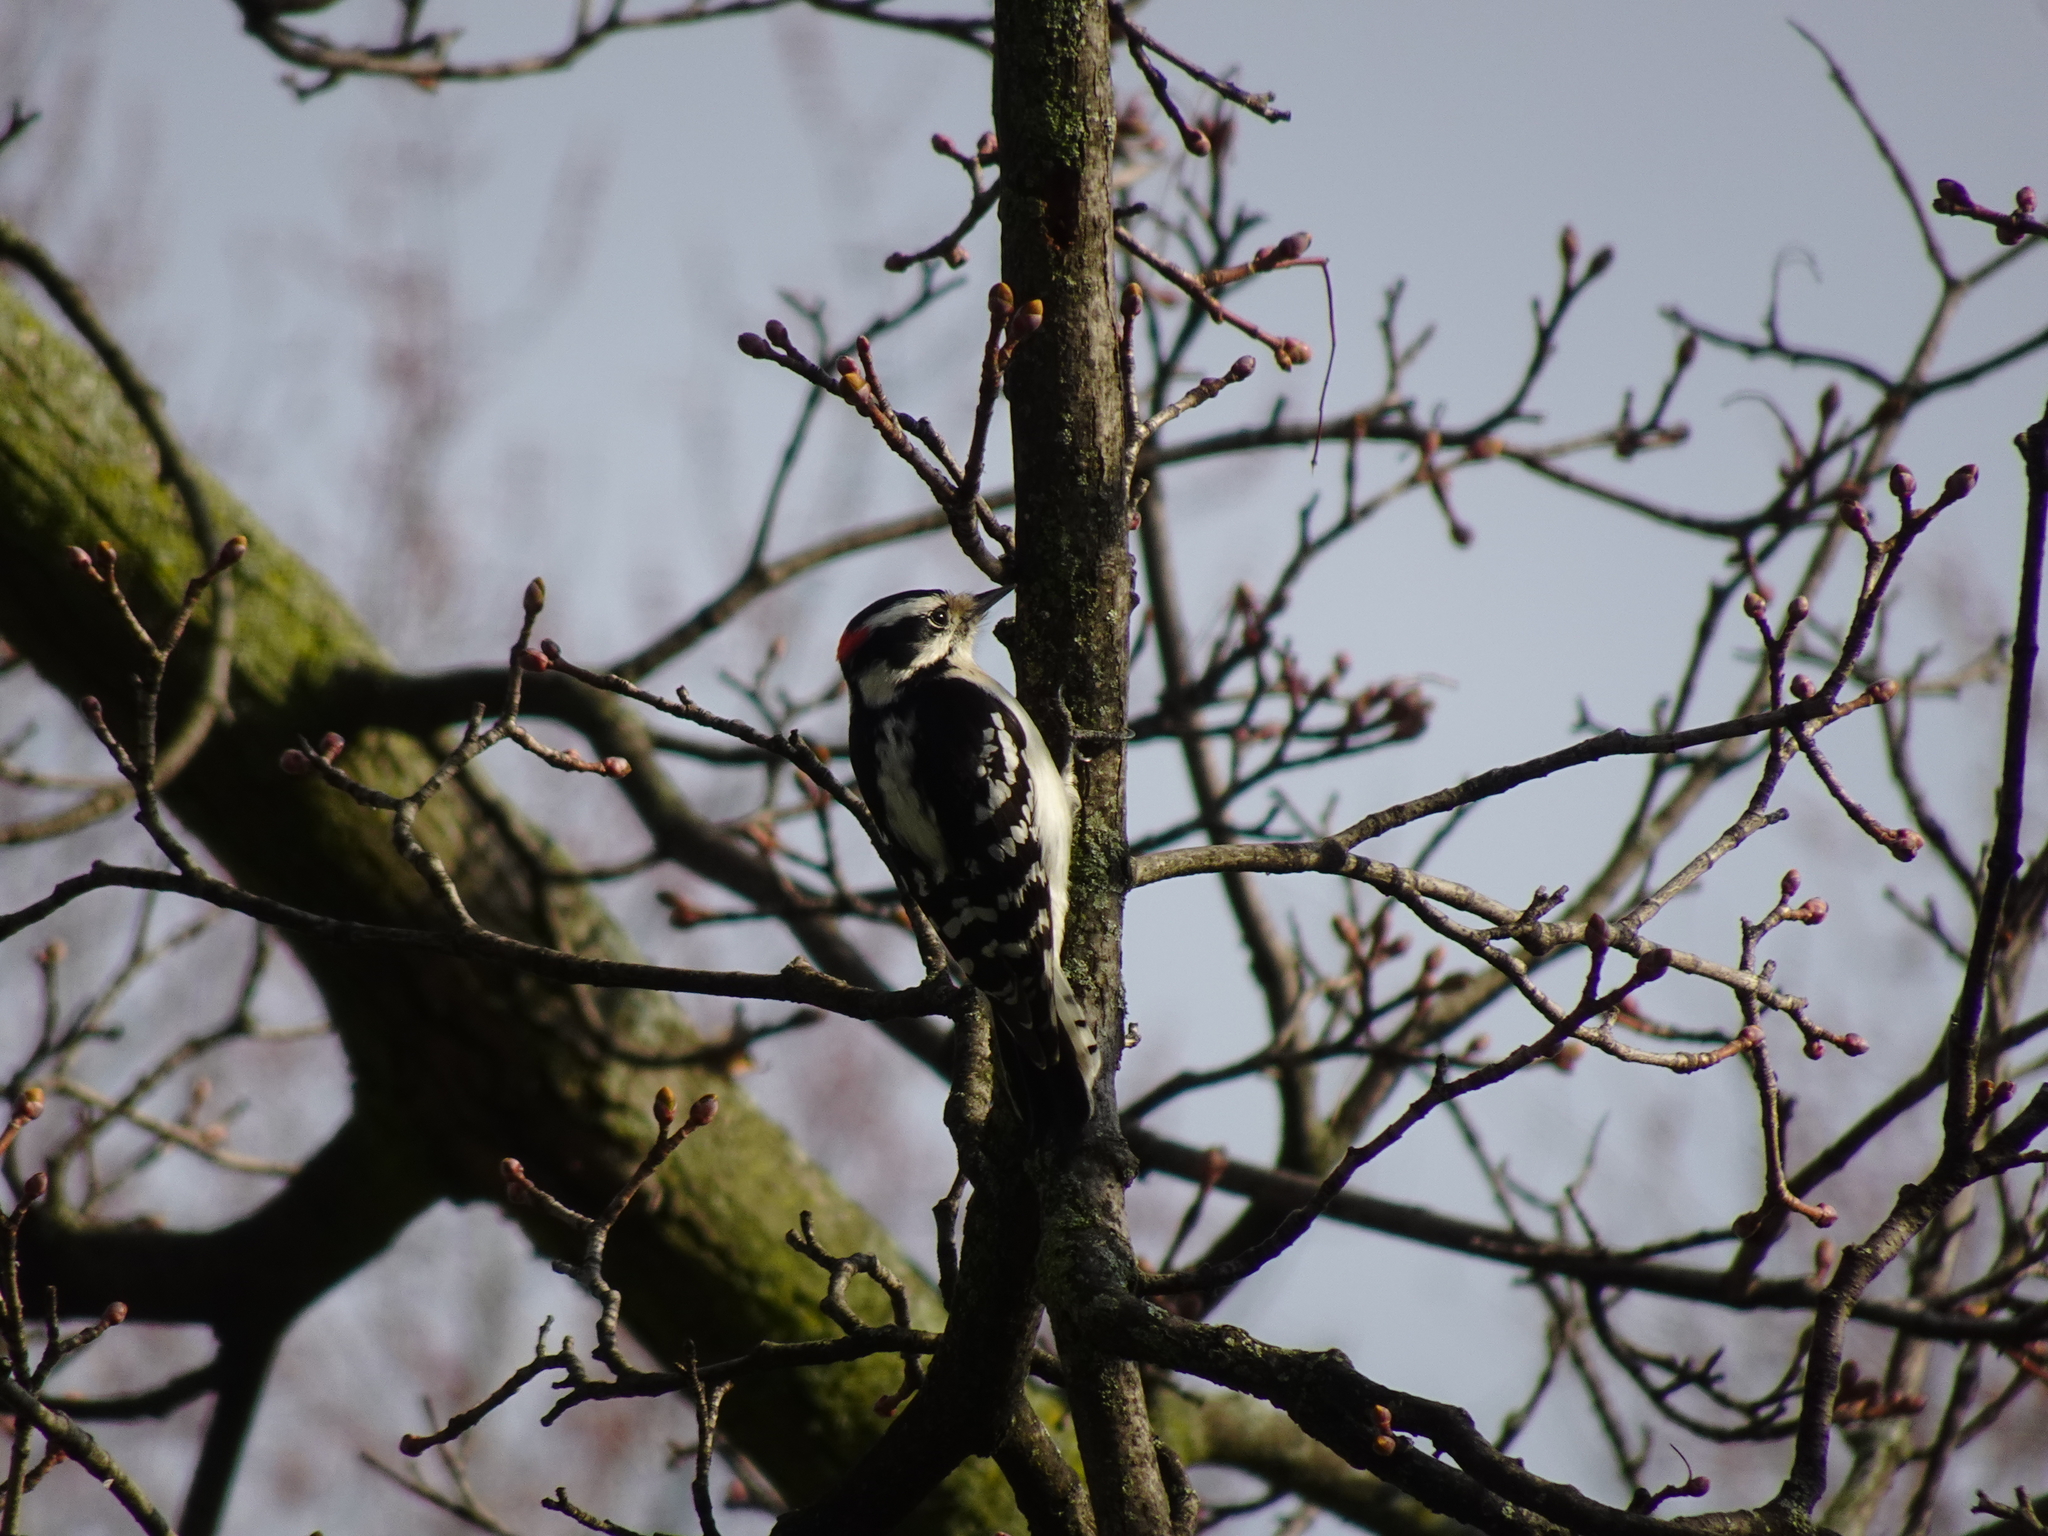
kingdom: Animalia
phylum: Chordata
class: Aves
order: Piciformes
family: Picidae
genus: Dryobates
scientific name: Dryobates pubescens
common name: Downy woodpecker
